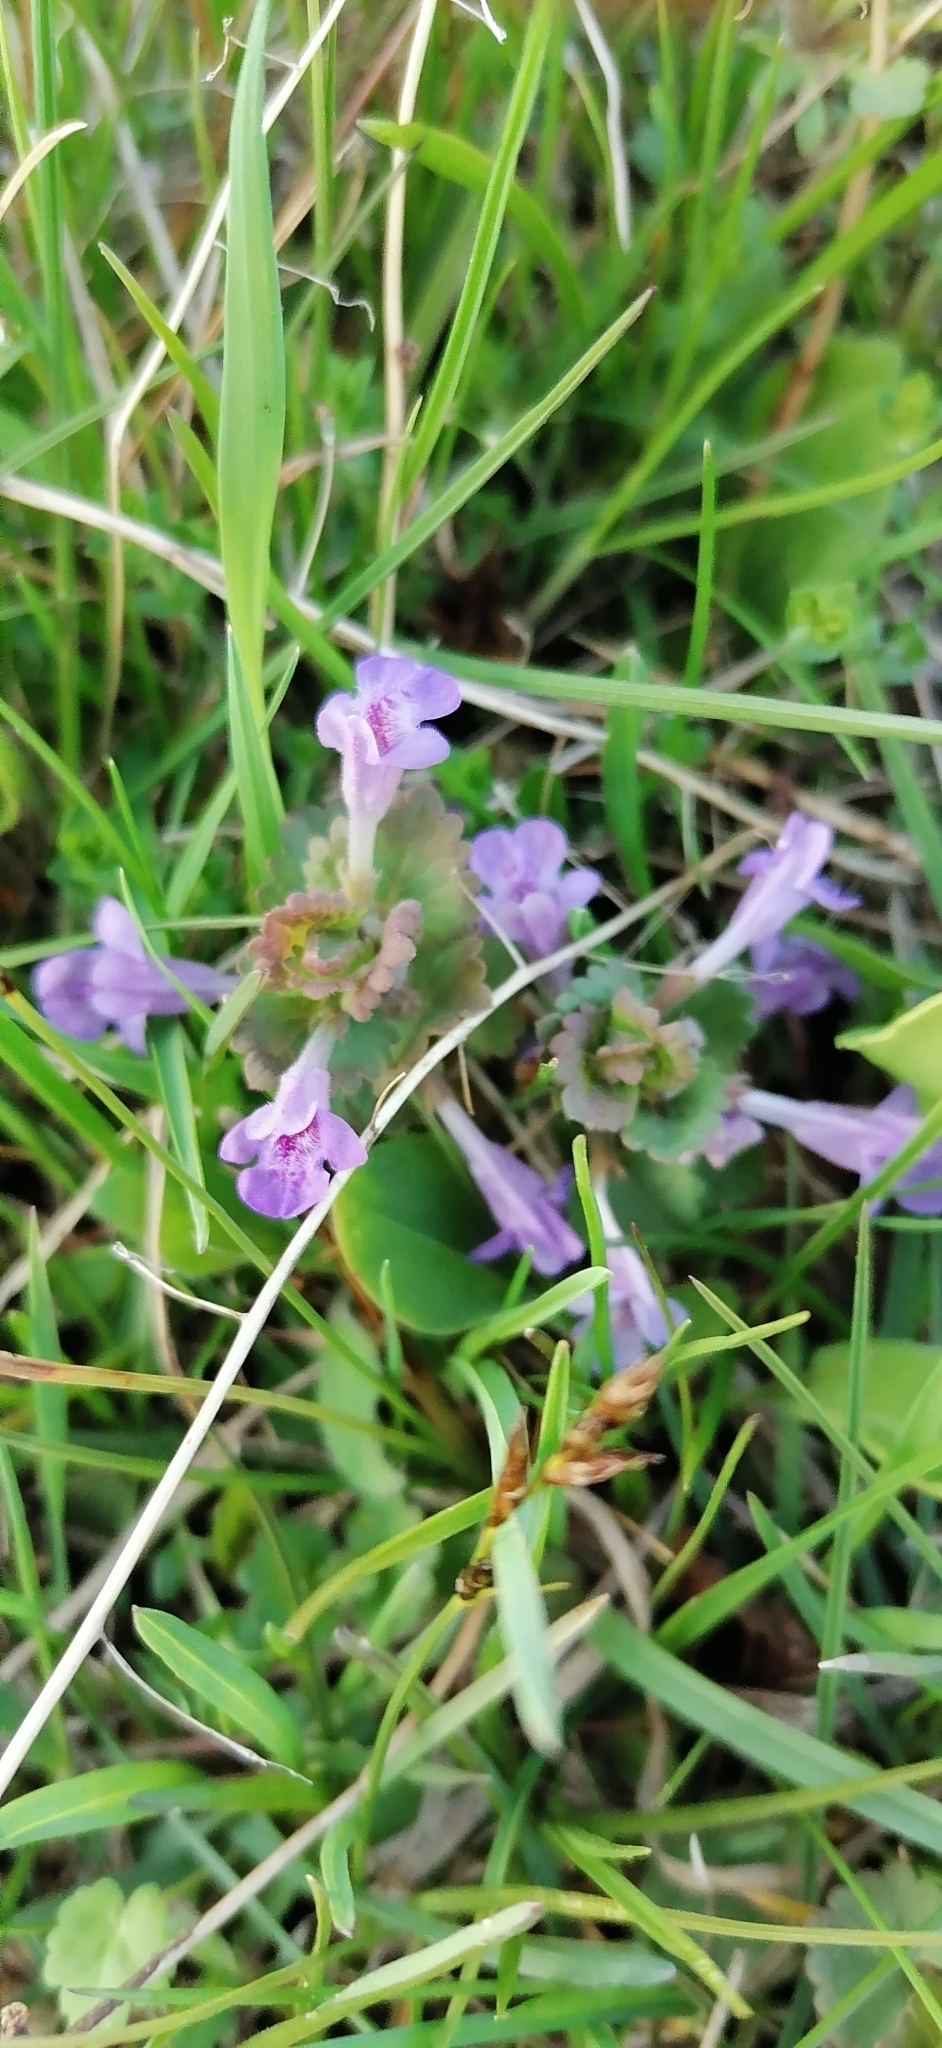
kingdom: Plantae
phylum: Tracheophyta
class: Magnoliopsida
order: Lamiales
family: Lamiaceae
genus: Glechoma
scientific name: Glechoma hederacea
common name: Ground ivy
